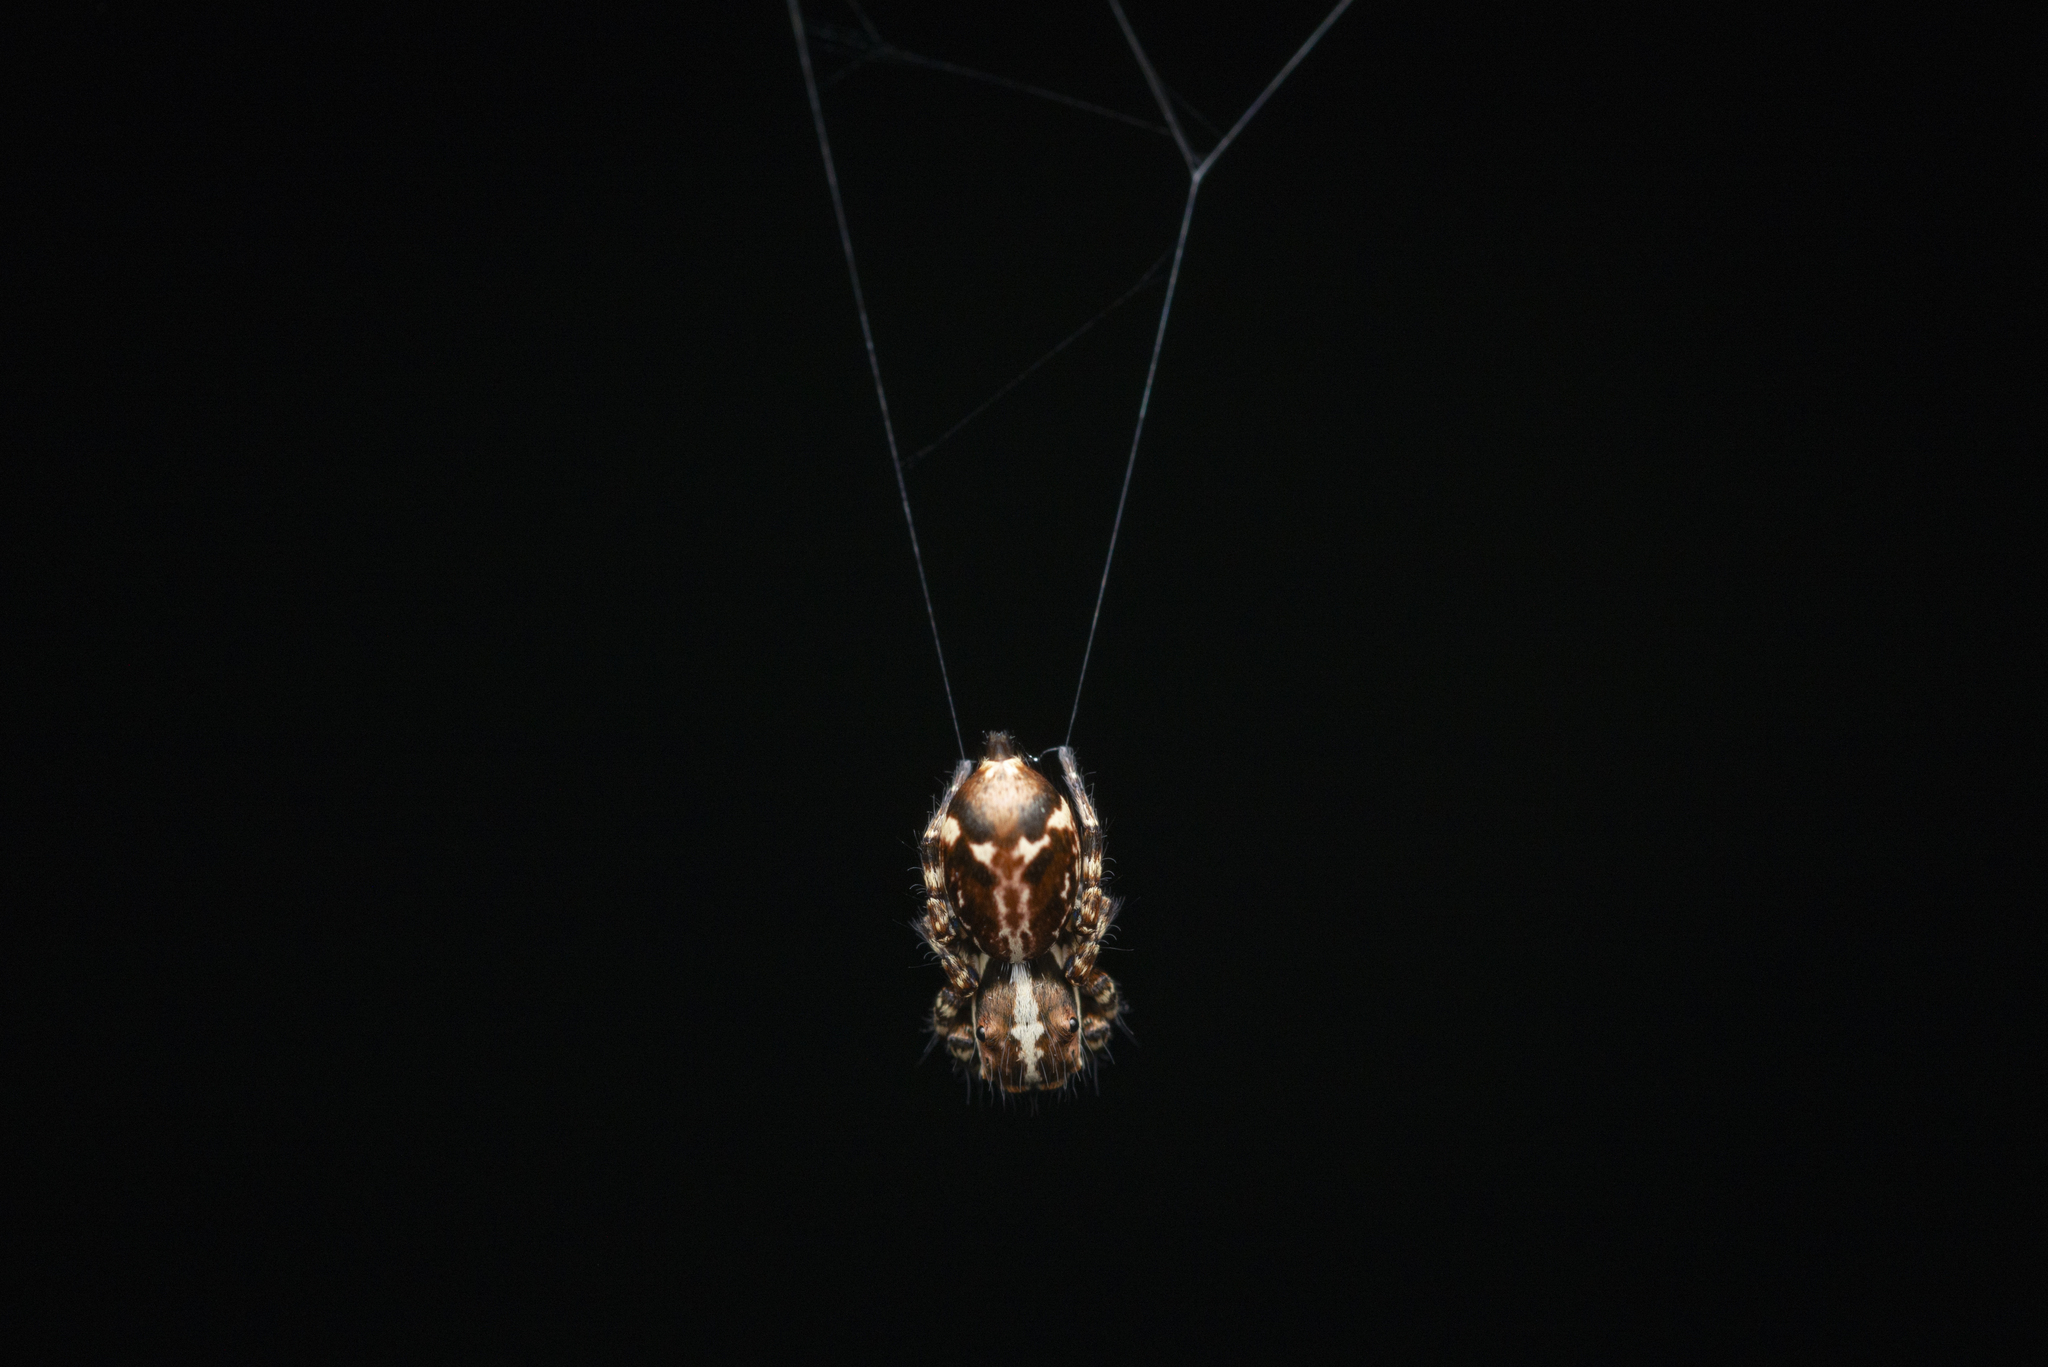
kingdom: Animalia
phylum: Arthropoda
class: Arachnida
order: Araneae
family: Salticidae
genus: Thyene
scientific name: Thyene orientalis
